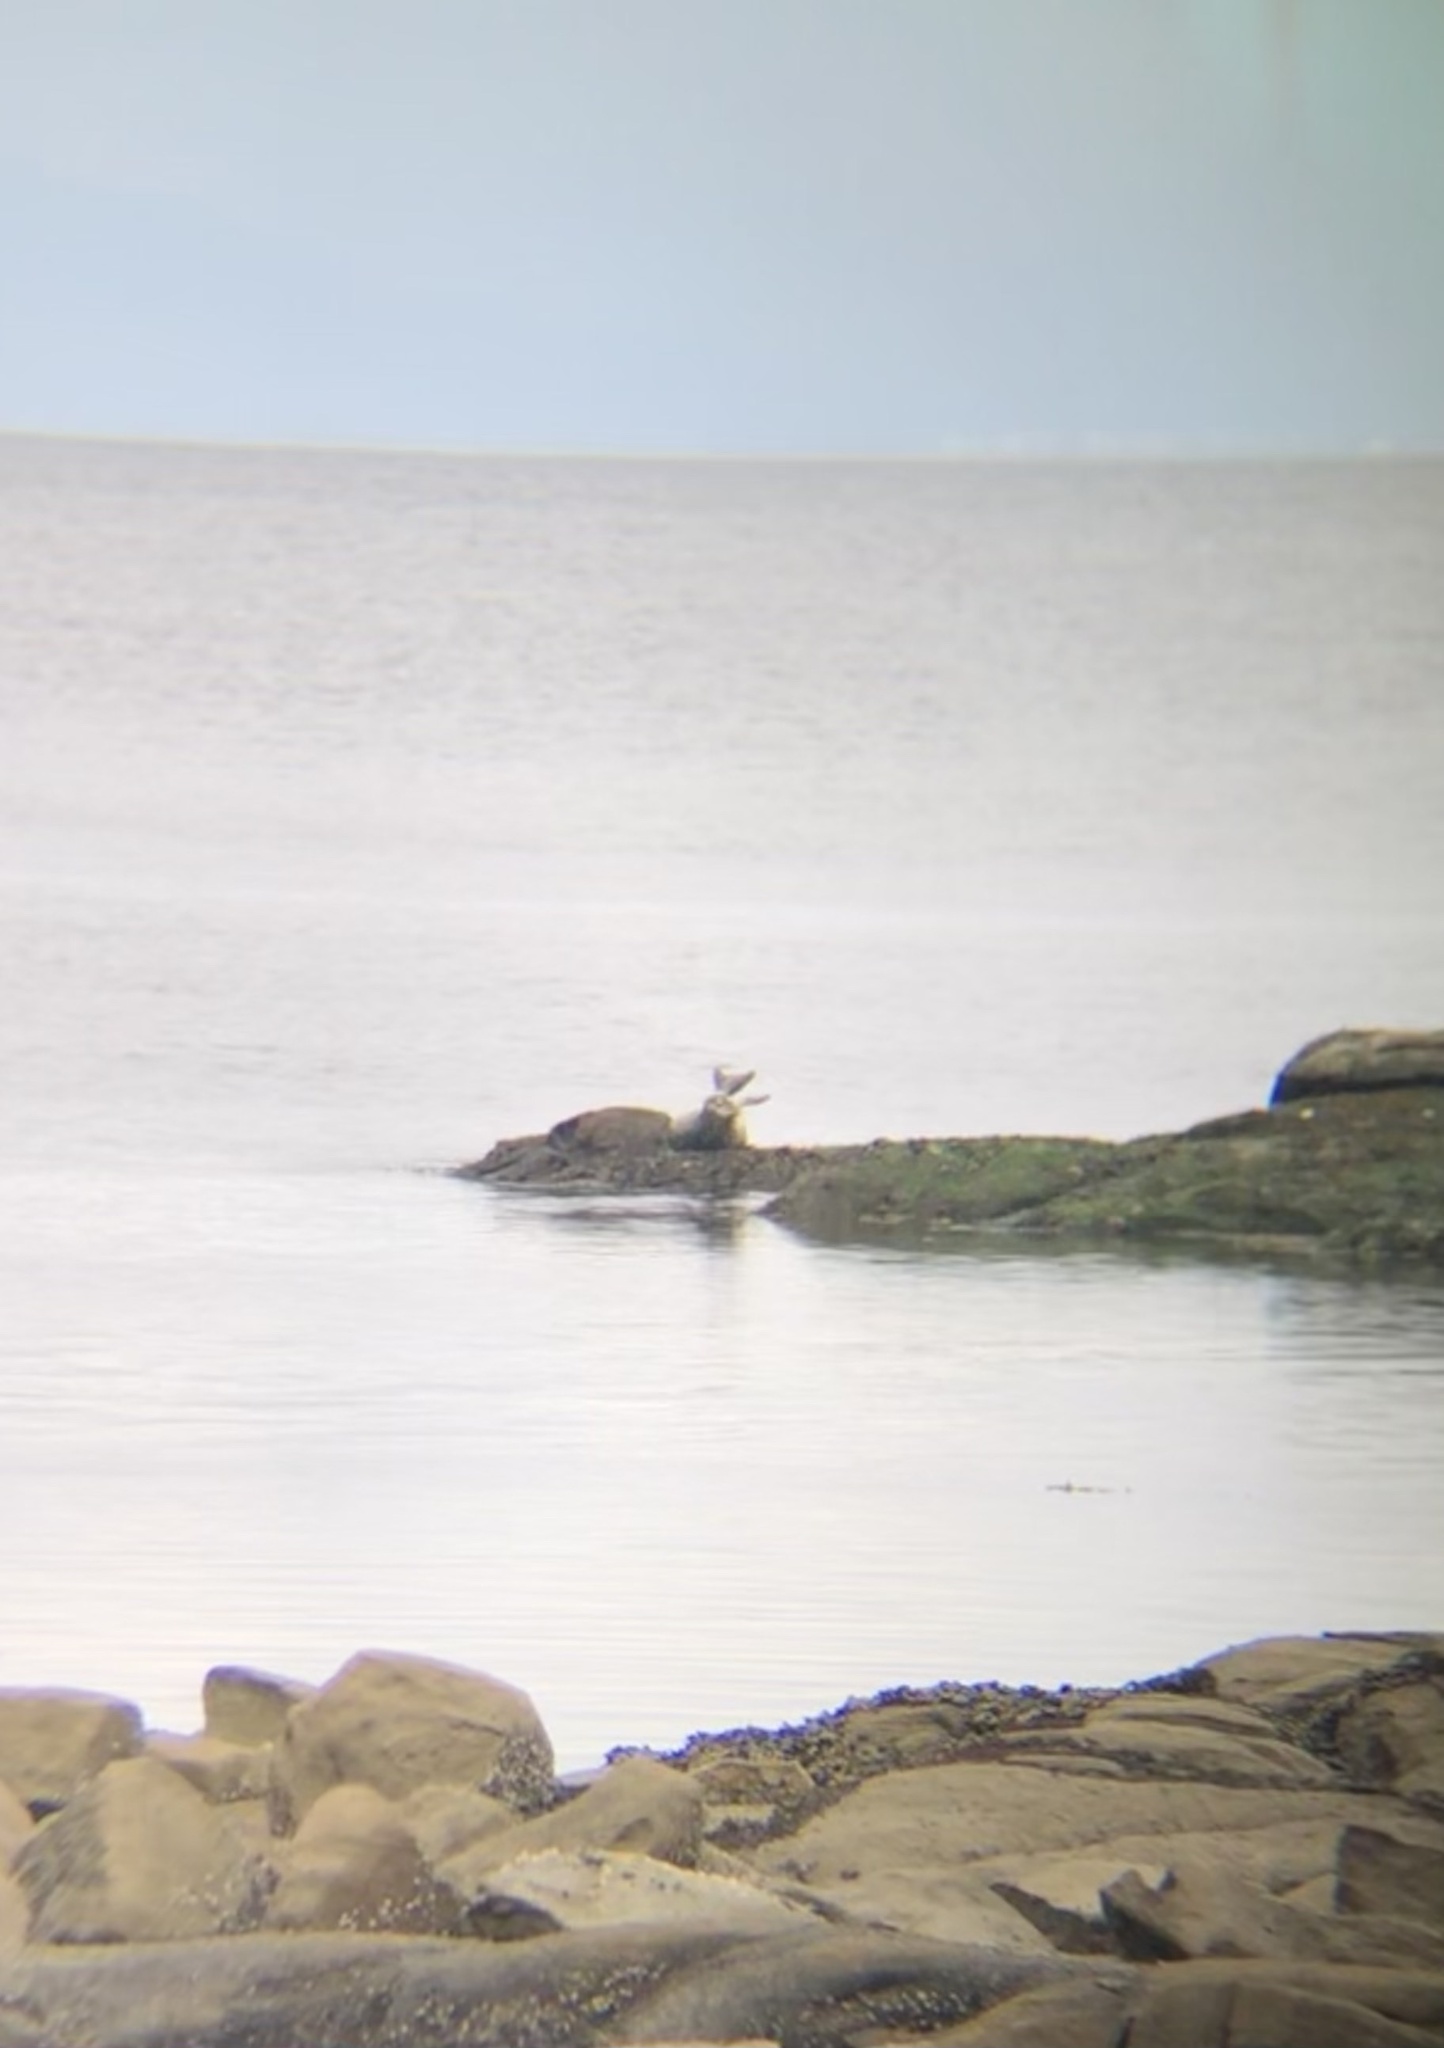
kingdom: Animalia
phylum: Chordata
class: Mammalia
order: Carnivora
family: Phocidae
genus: Phoca
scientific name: Phoca vitulina
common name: Harbor seal
